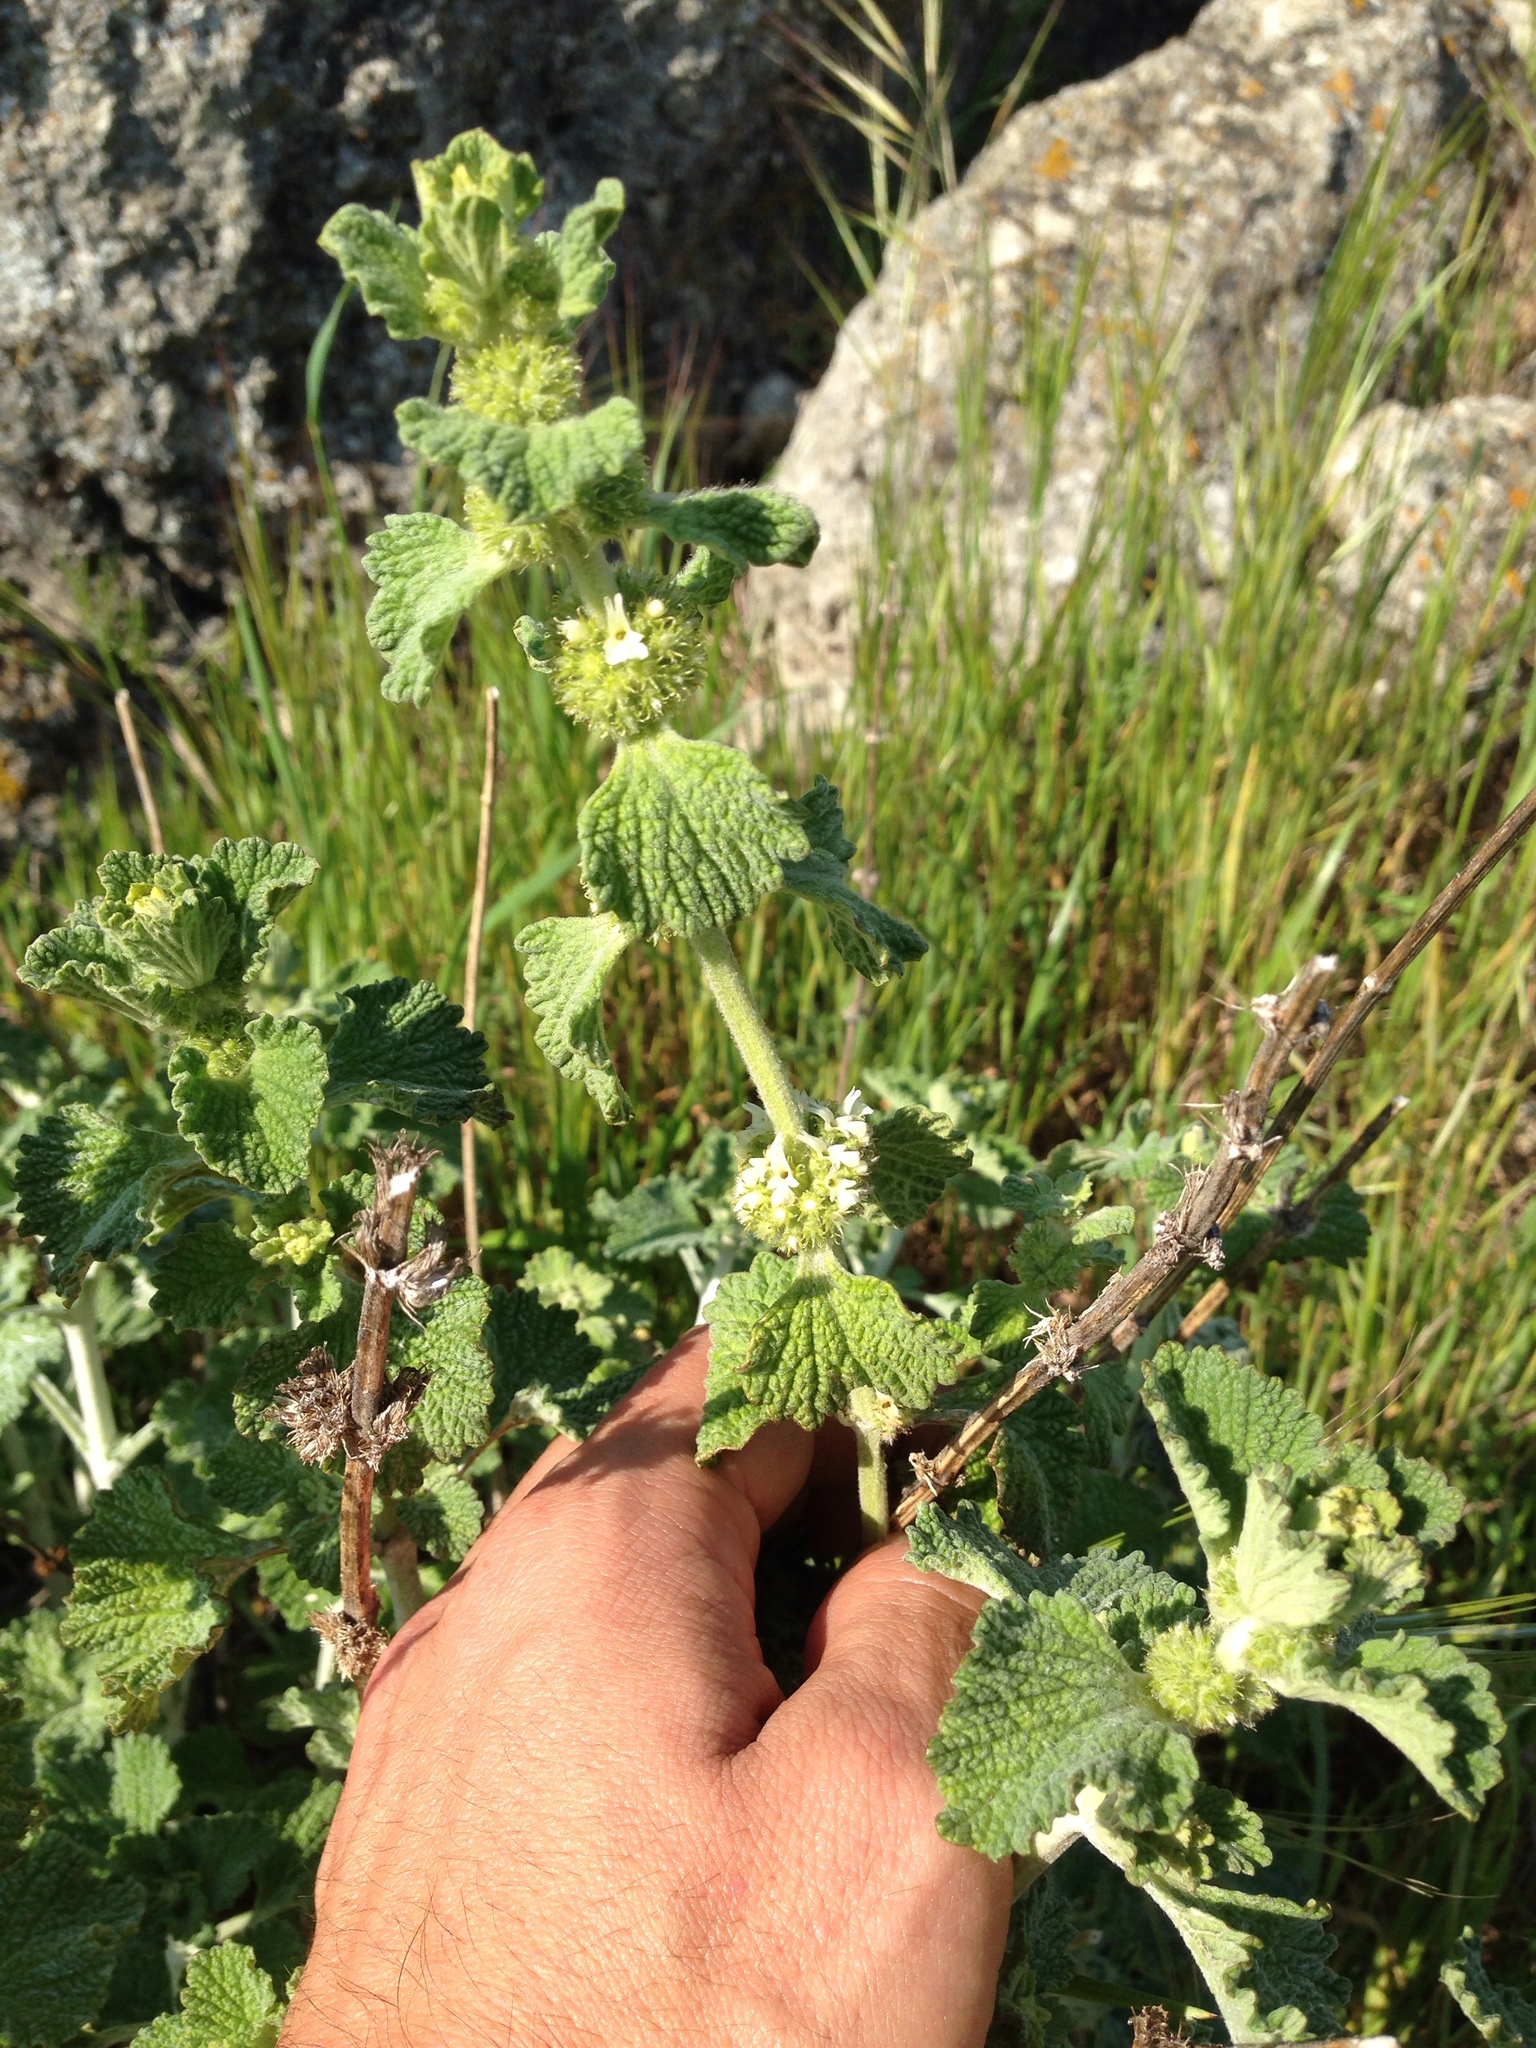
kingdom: Plantae
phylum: Tracheophyta
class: Magnoliopsida
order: Lamiales
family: Lamiaceae
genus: Marrubium
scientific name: Marrubium vulgare
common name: Horehound
